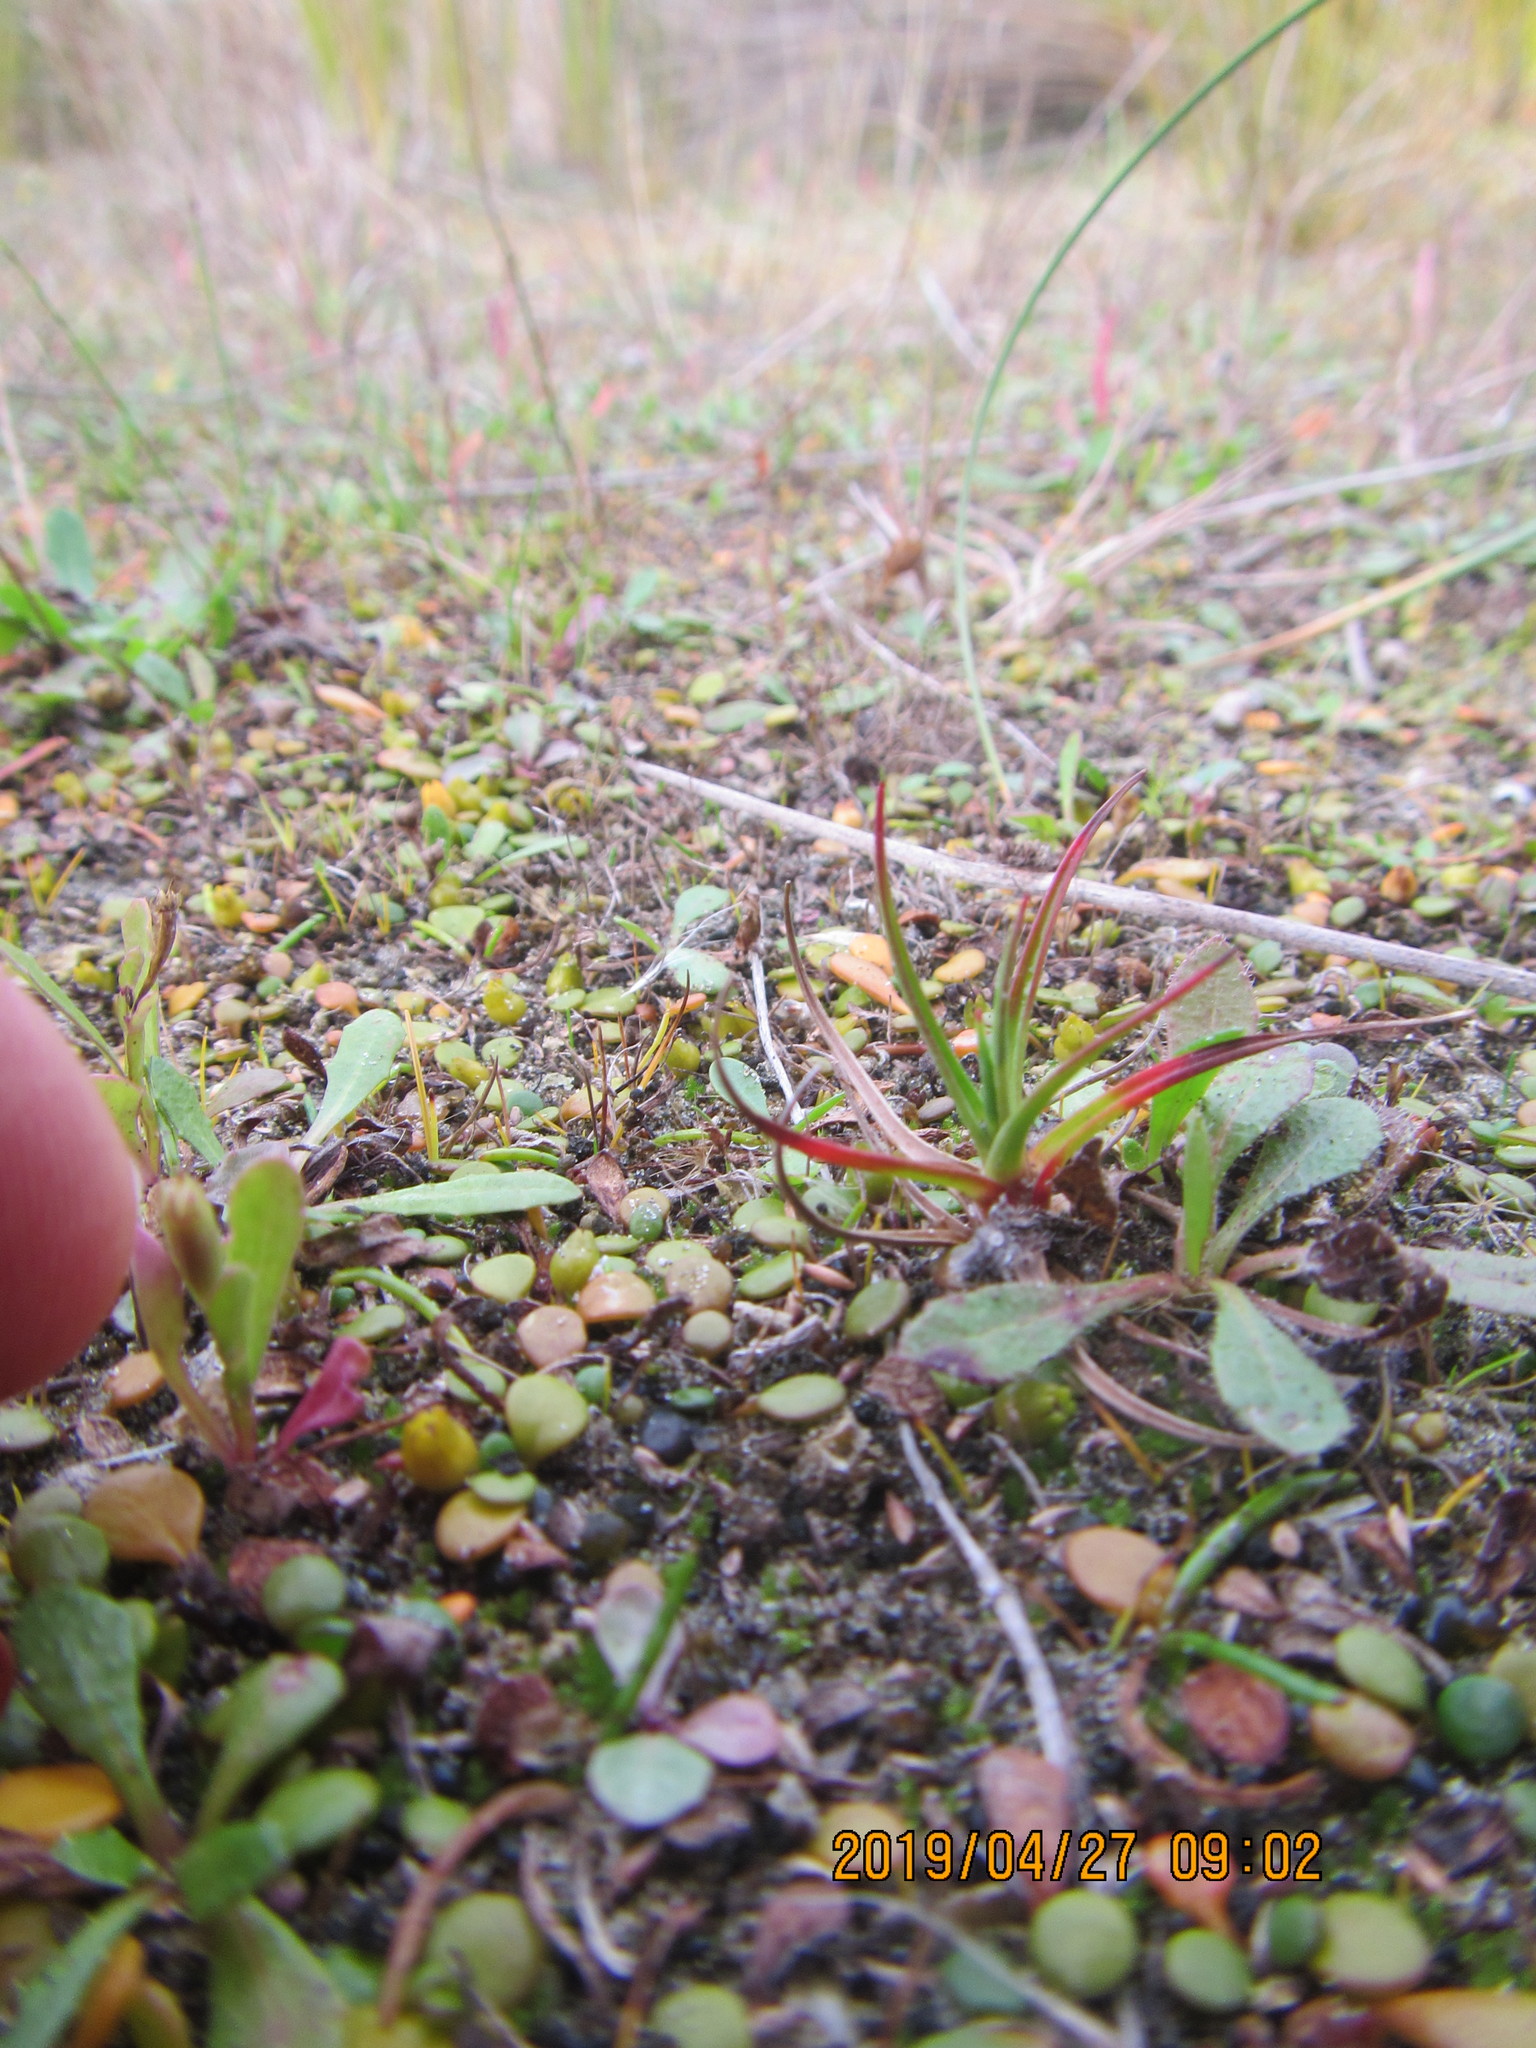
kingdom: Plantae
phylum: Tracheophyta
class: Liliopsida
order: Poales
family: Juncaceae
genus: Juncus
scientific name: Juncus caespiticius
